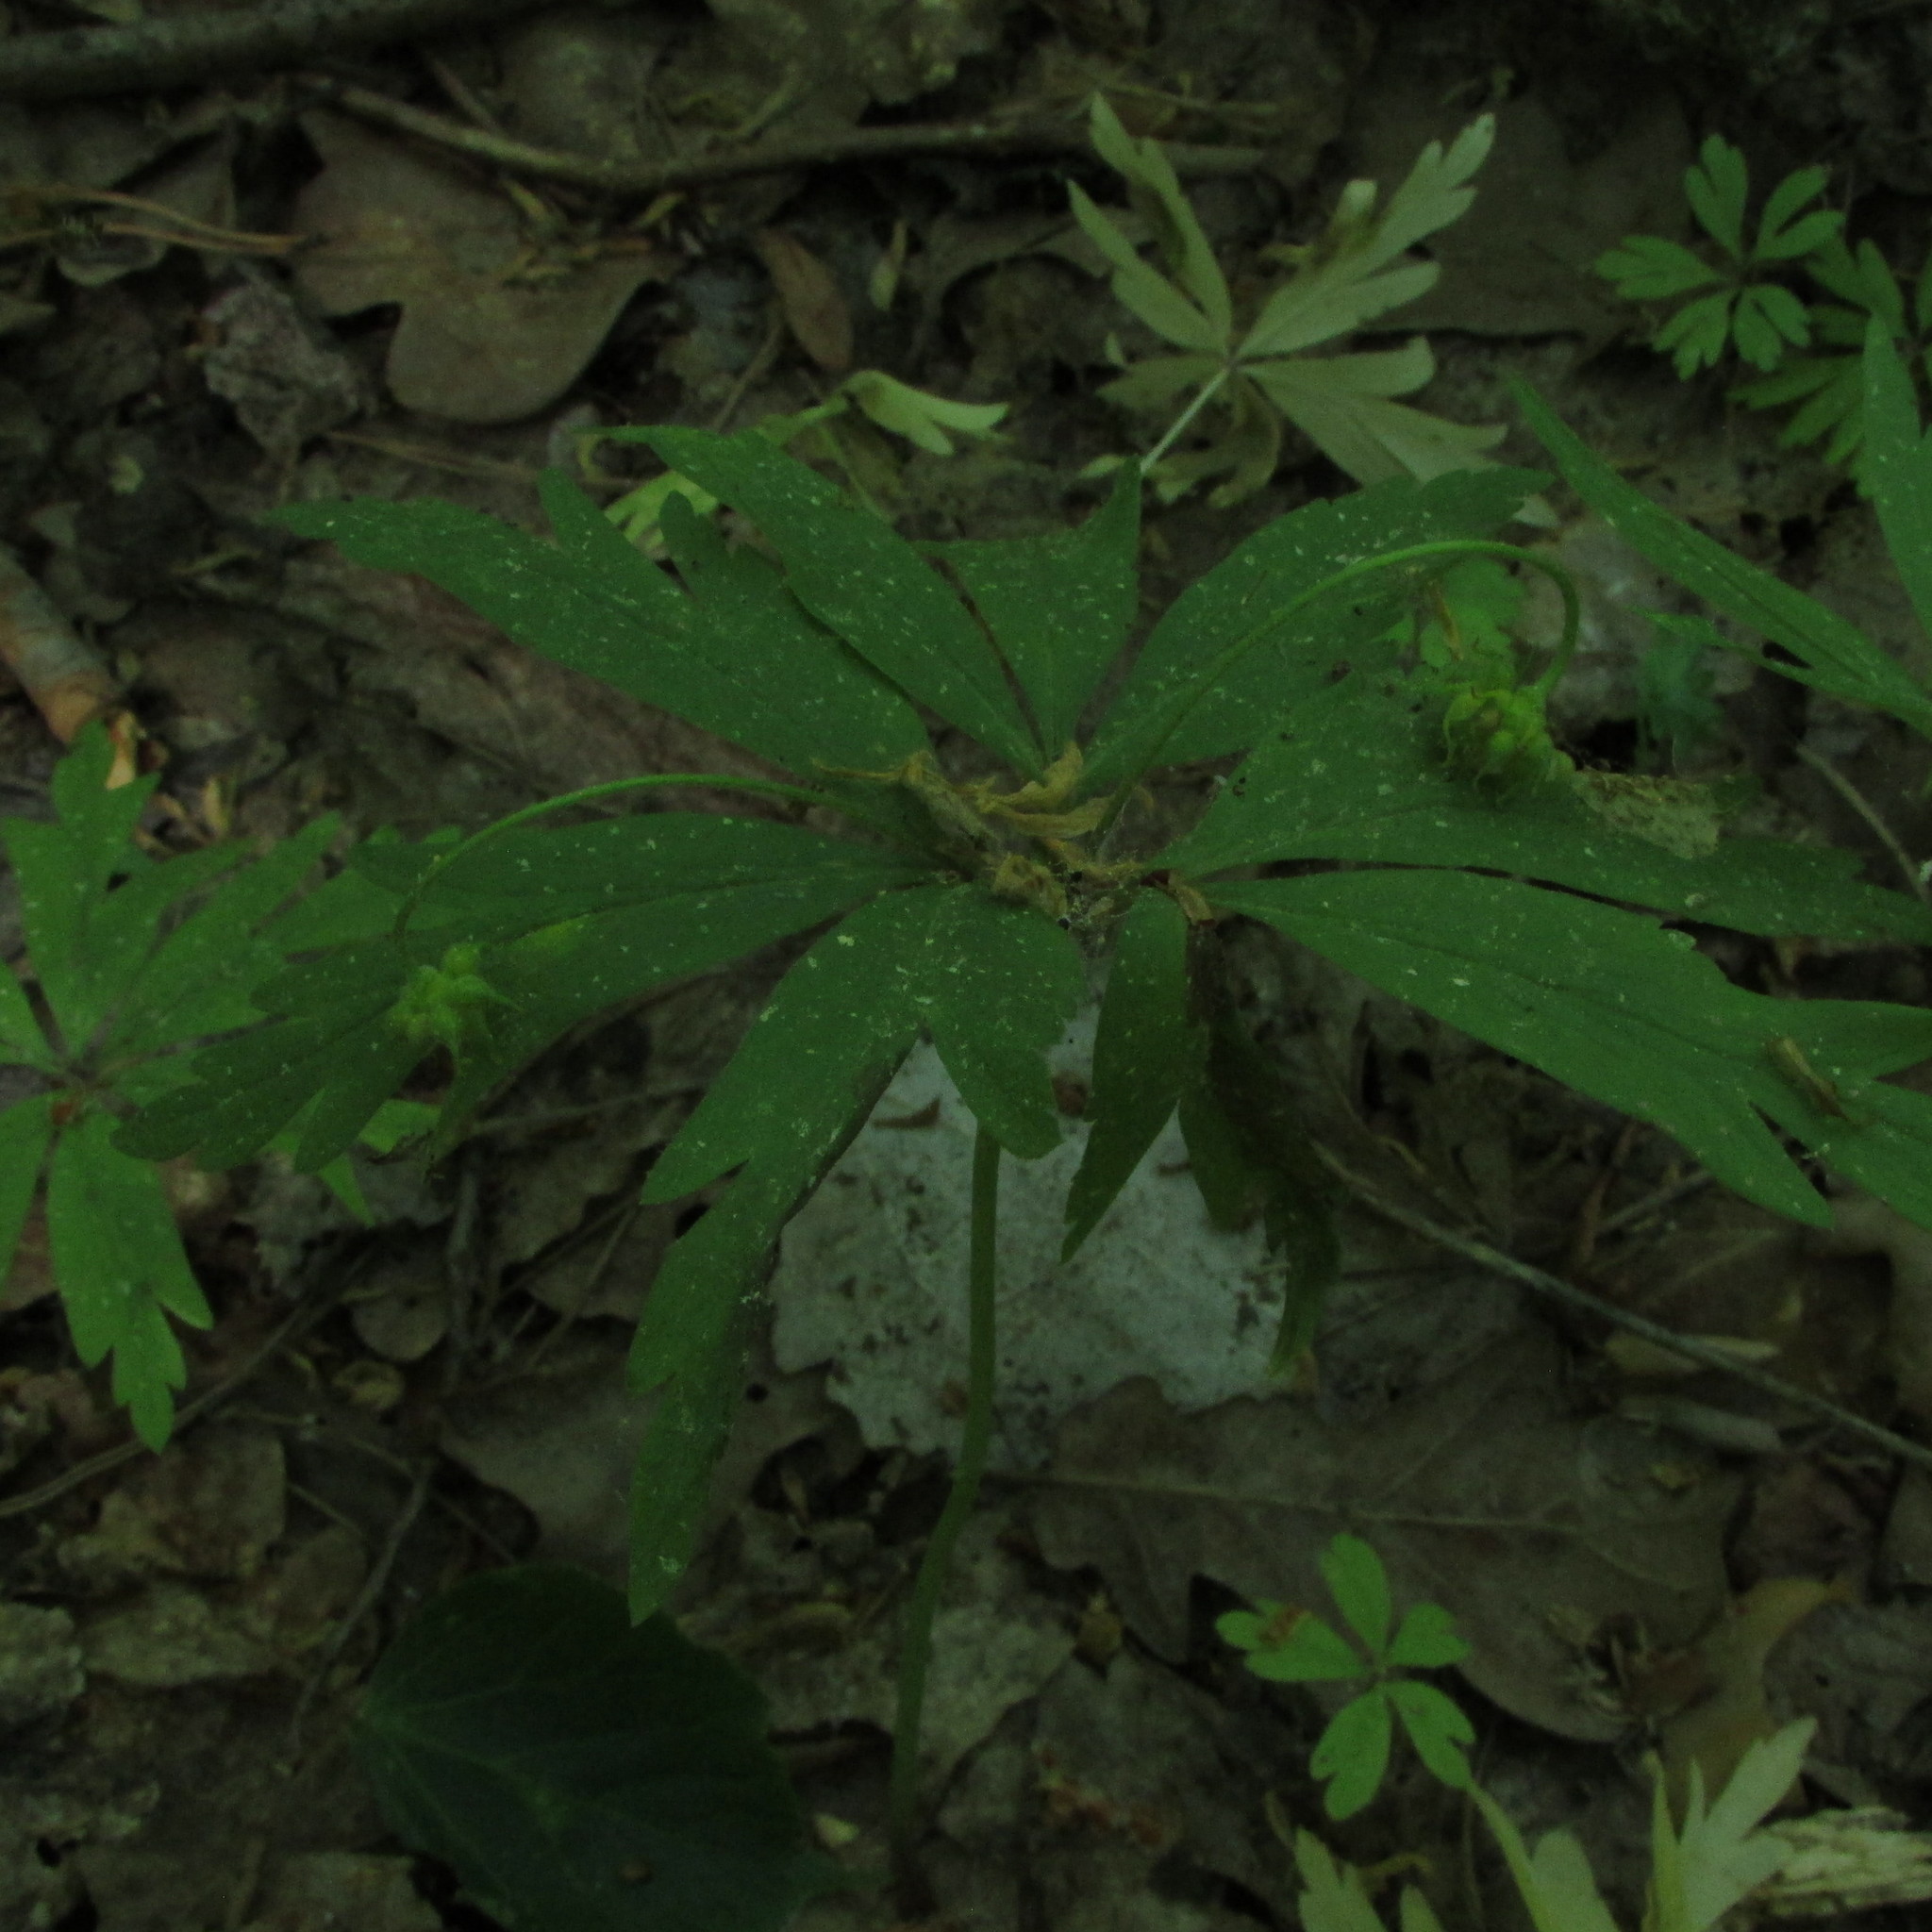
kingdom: Plantae
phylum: Tracheophyta
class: Magnoliopsida
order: Ranunculales
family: Ranunculaceae
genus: Anemone
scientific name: Anemone ranunculoides
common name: Yellow anemone
